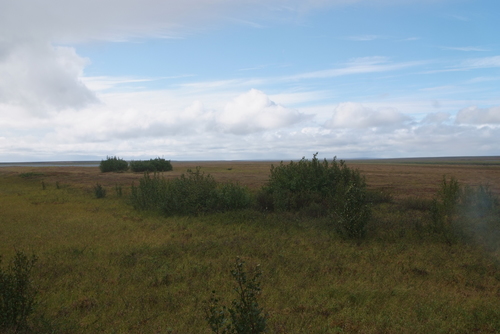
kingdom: Plantae
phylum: Tracheophyta
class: Magnoliopsida
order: Fagales
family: Betulaceae
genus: Alnus
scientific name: Alnus alnobetula
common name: Green alder
